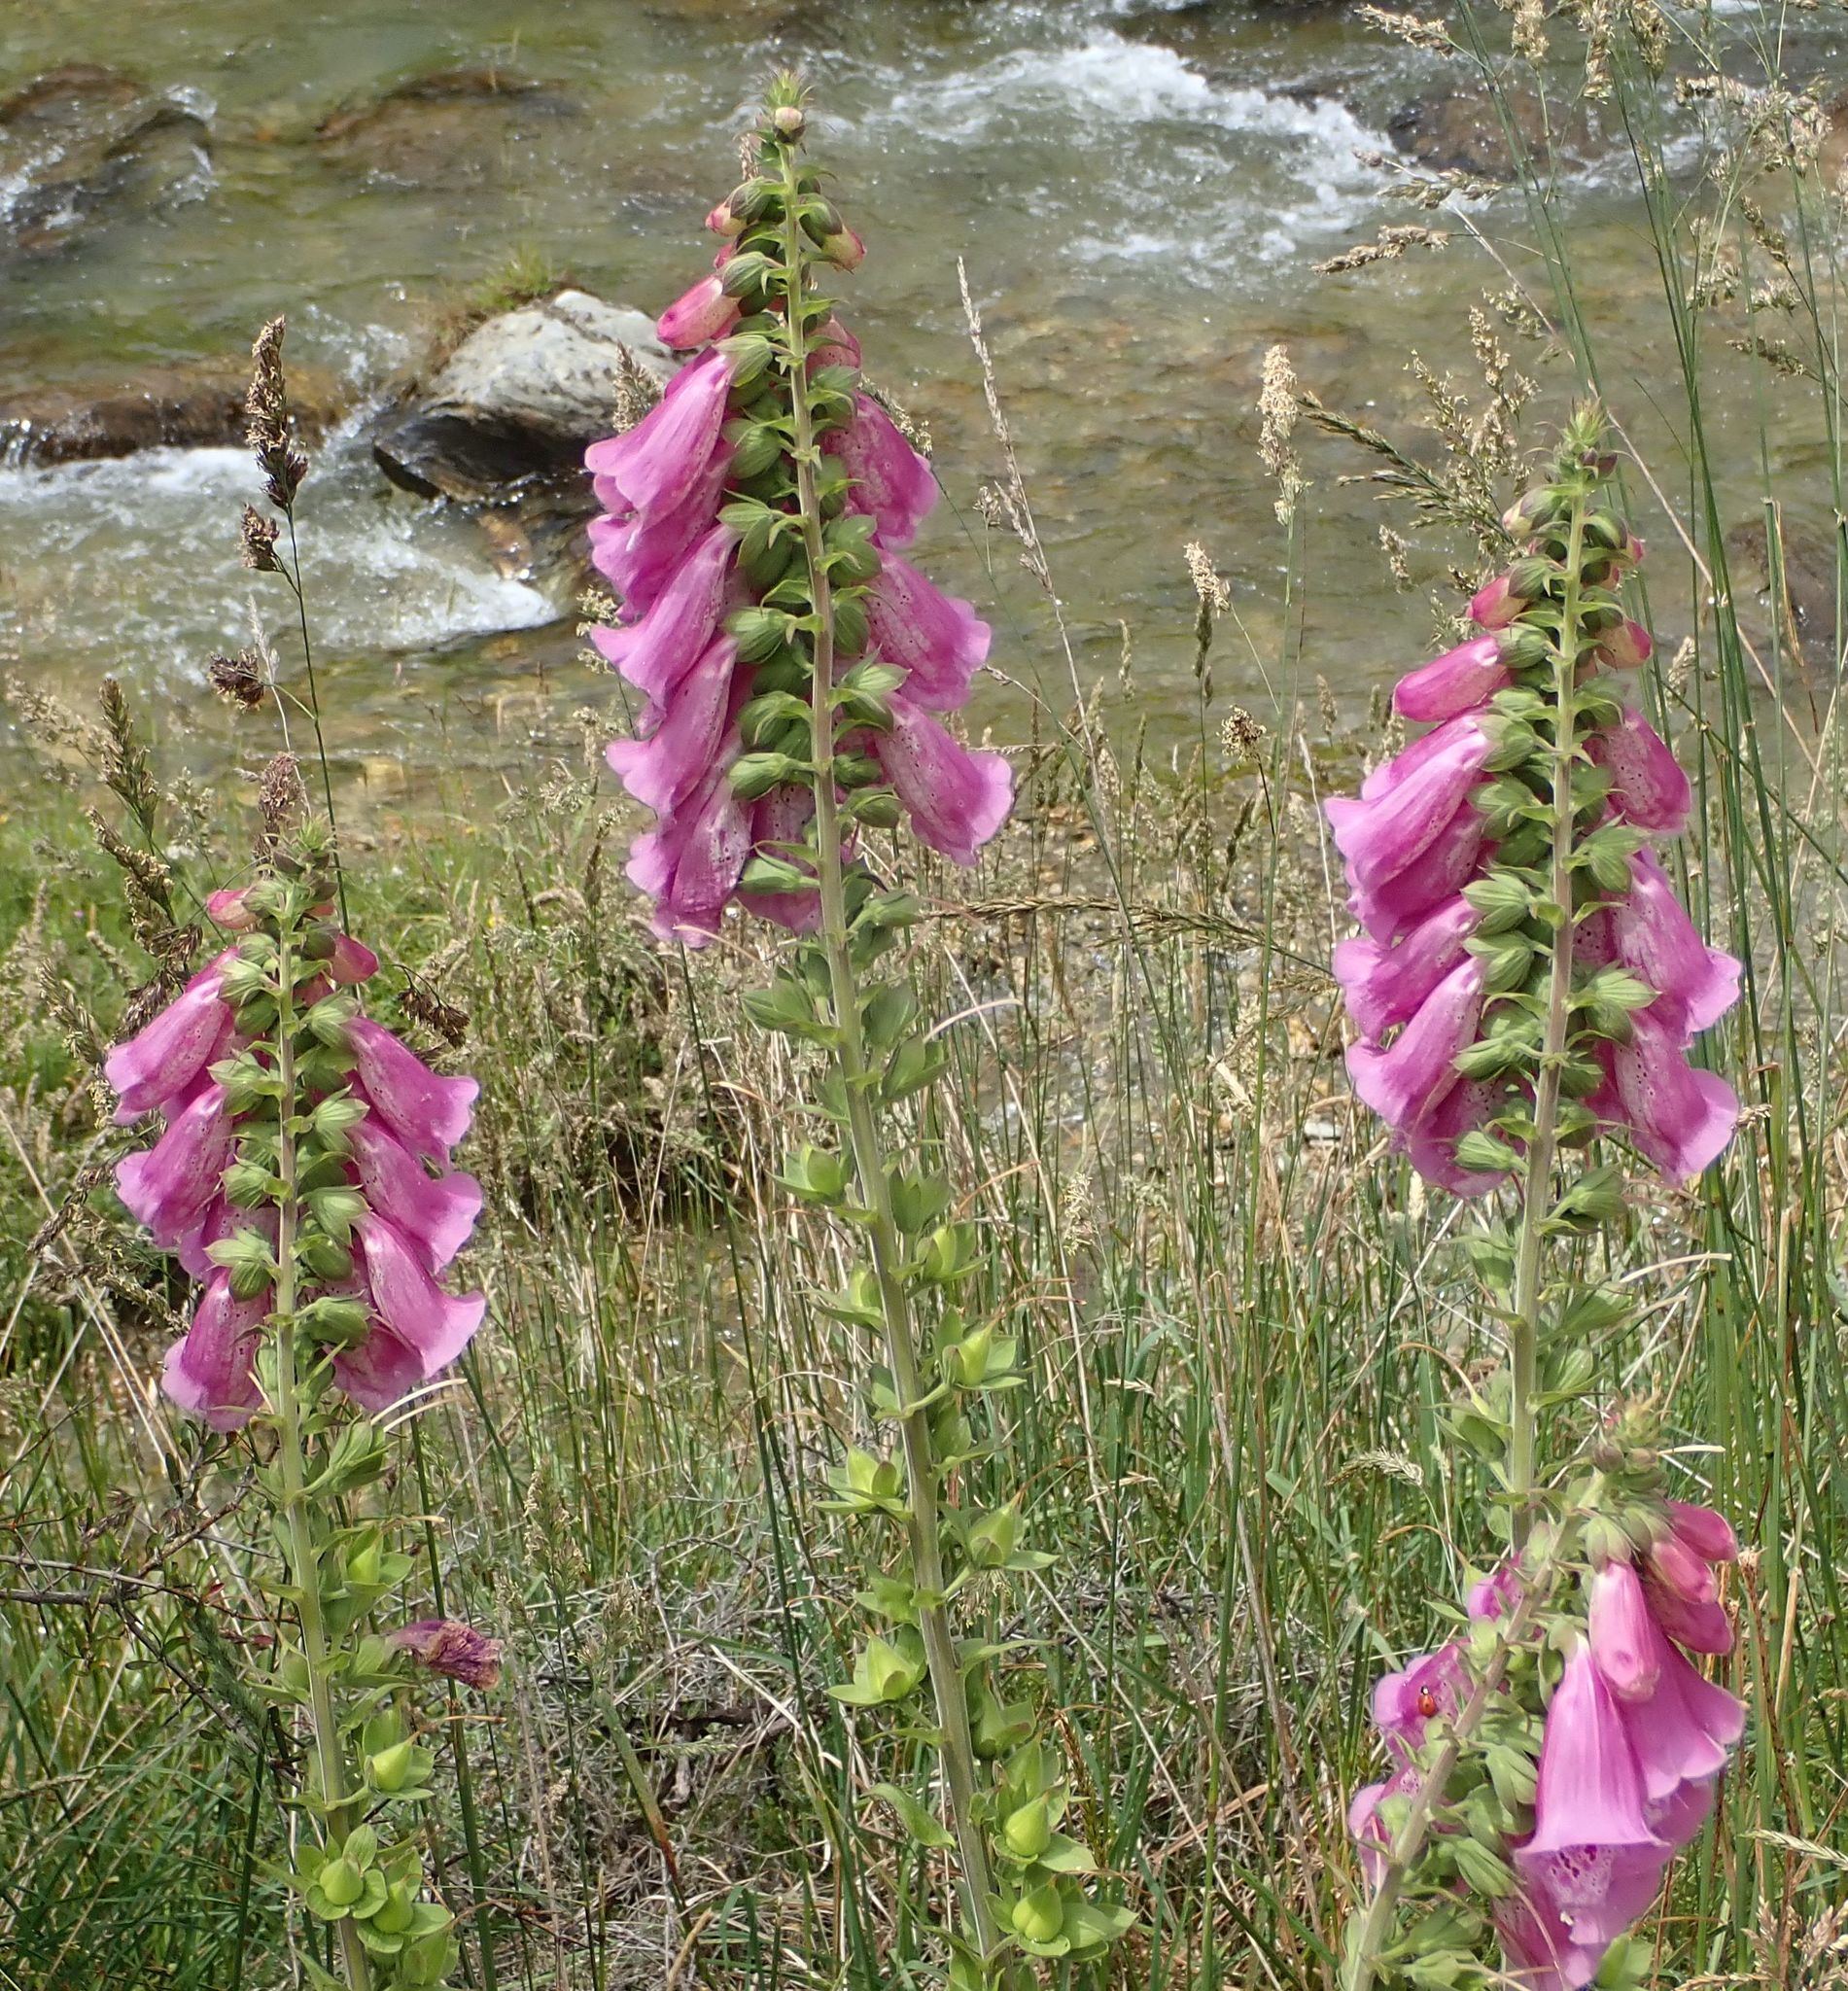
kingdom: Plantae
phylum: Tracheophyta
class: Magnoliopsida
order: Lamiales
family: Plantaginaceae
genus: Digitalis
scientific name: Digitalis purpurea
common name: Foxglove
